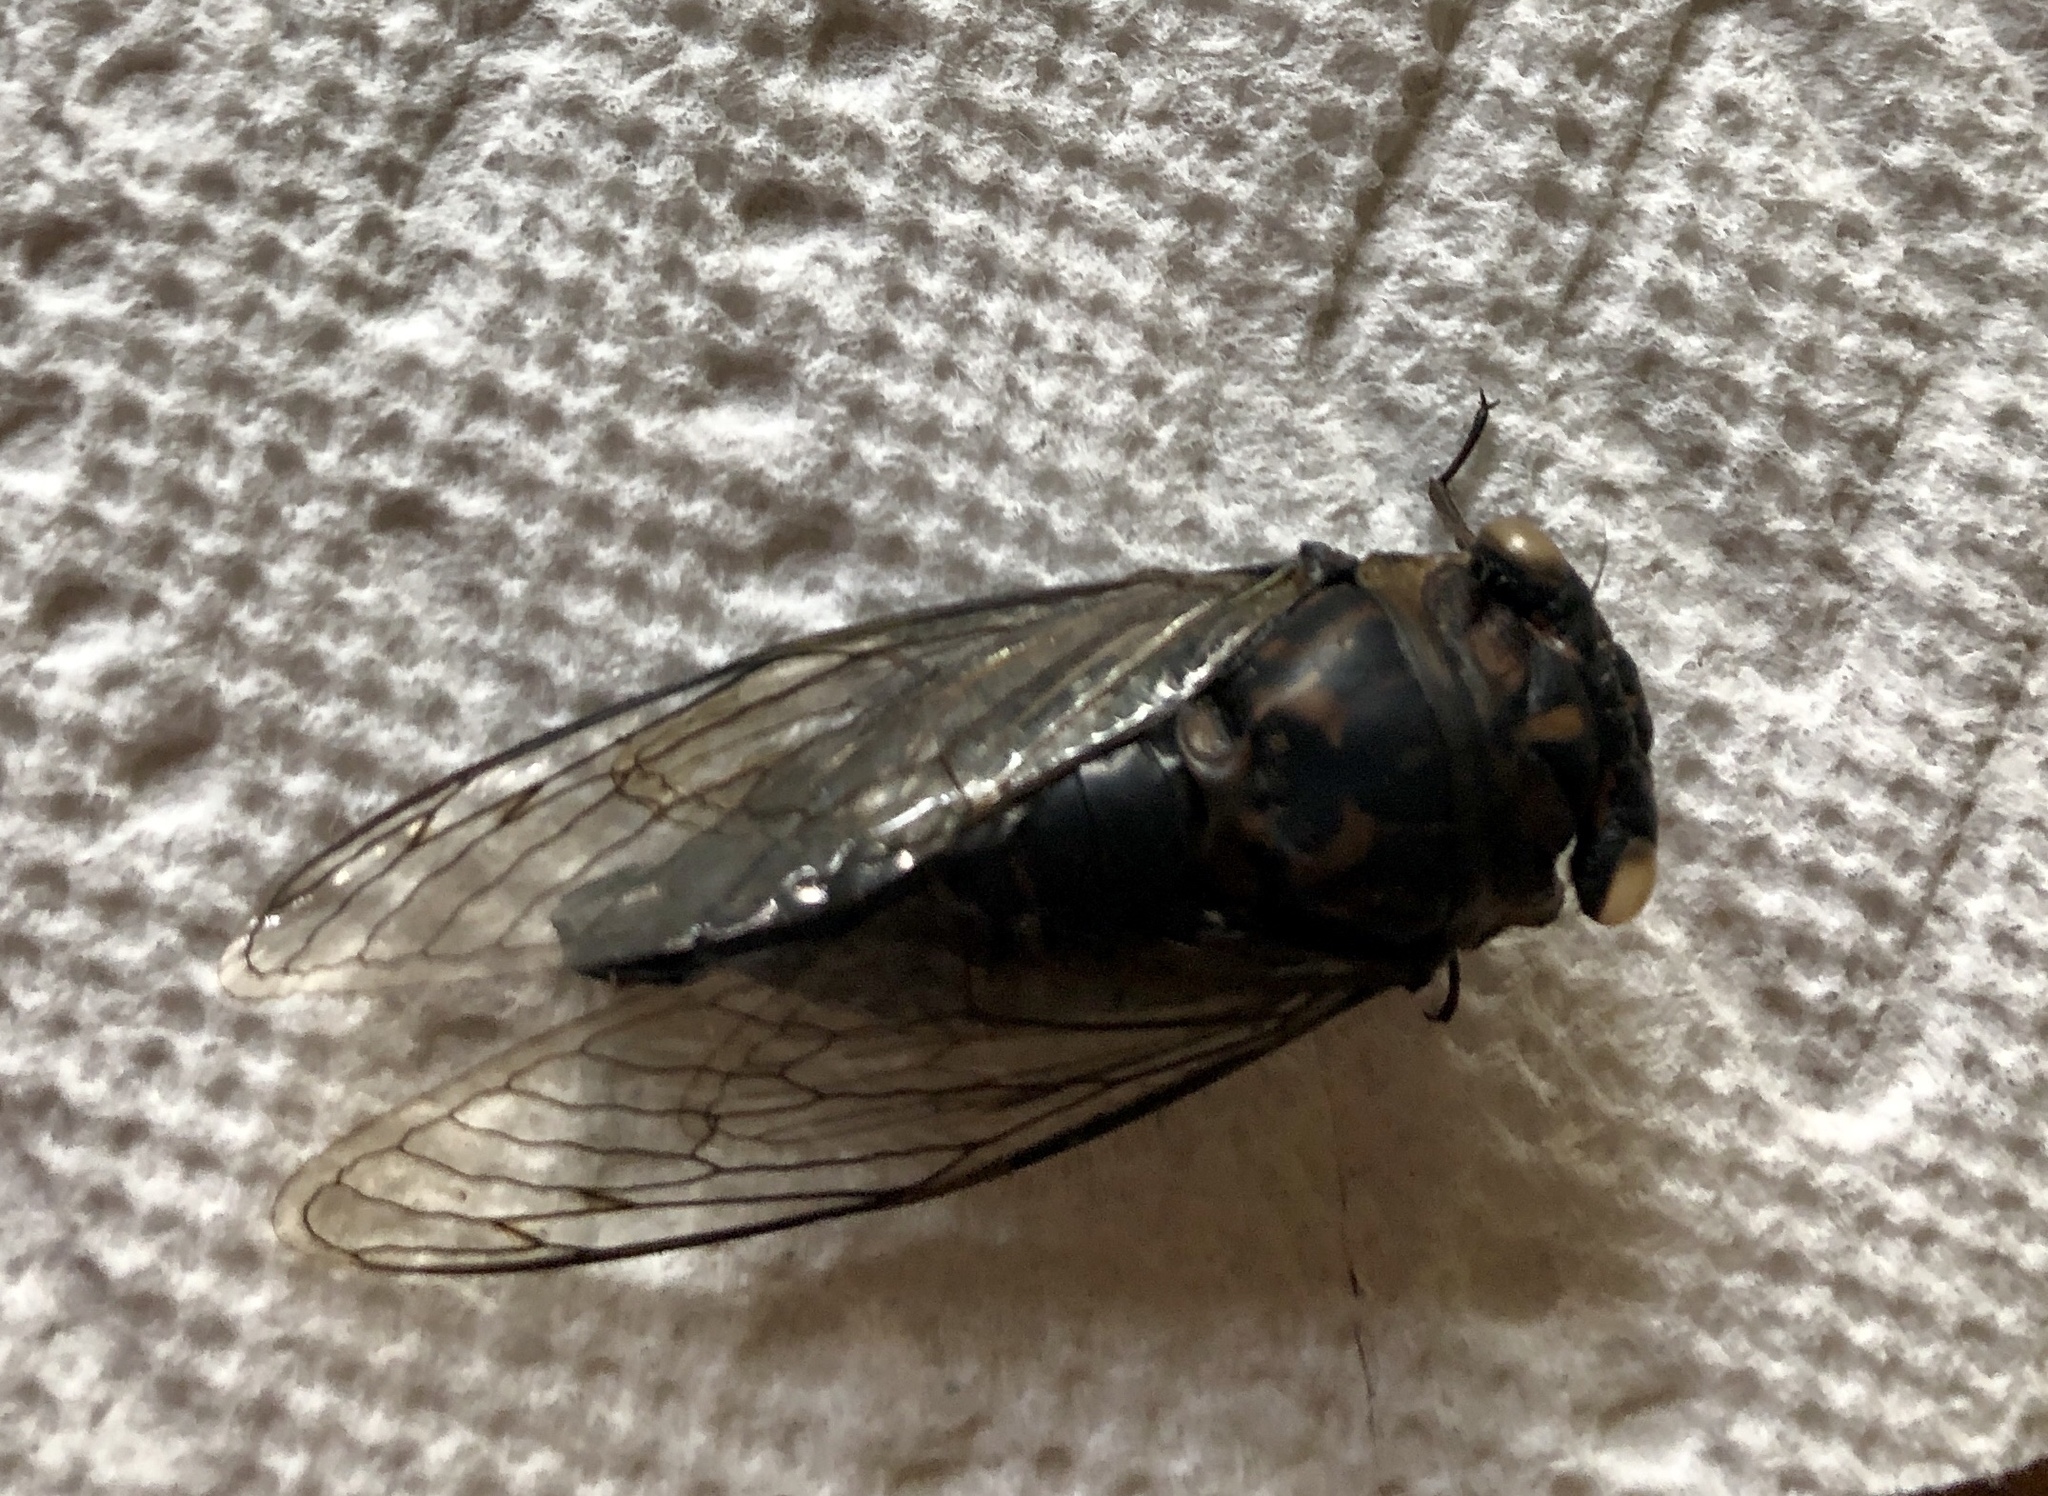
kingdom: Animalia
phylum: Arthropoda
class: Insecta
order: Hemiptera
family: Cicadidae
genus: Neotibicen
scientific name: Neotibicen canicularis
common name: God-day cicada
